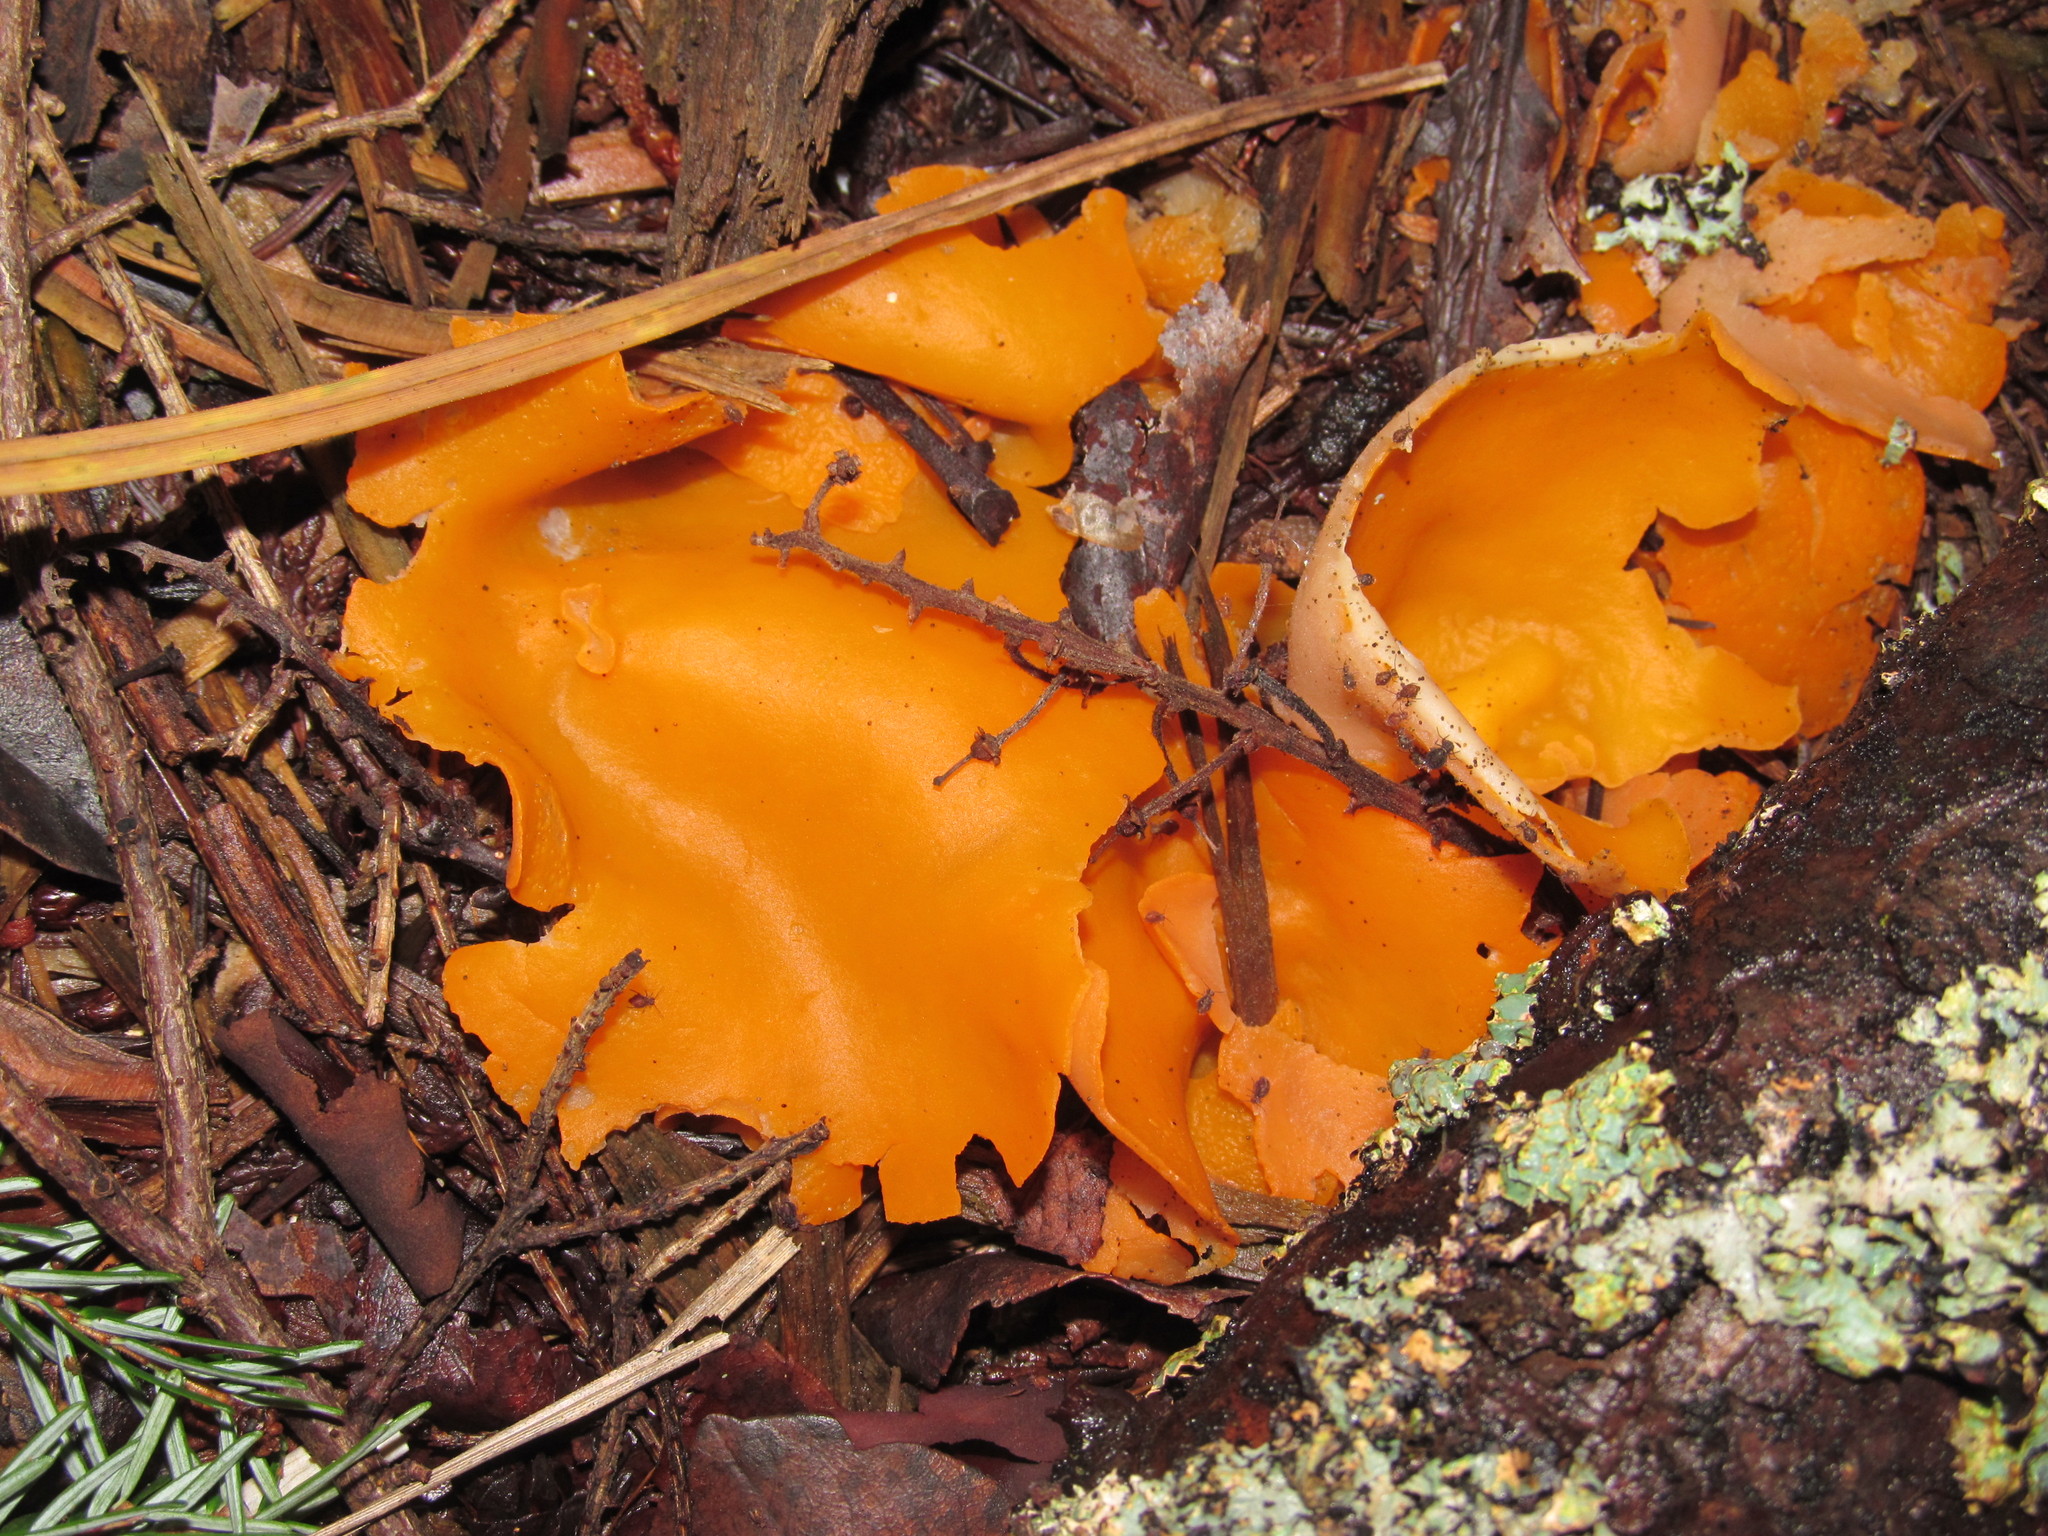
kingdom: Fungi
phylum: Ascomycota
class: Pezizomycetes
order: Pezizales
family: Pyronemataceae
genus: Aleuria
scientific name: Aleuria aurantia
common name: Orange peel fungus
